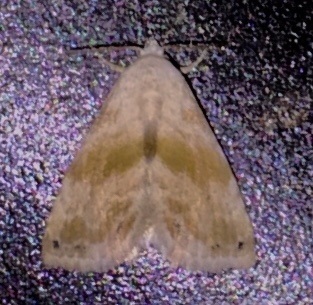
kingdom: Animalia
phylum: Arthropoda
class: Insecta
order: Lepidoptera
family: Noctuidae
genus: Eublemma
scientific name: Eublemma minima
